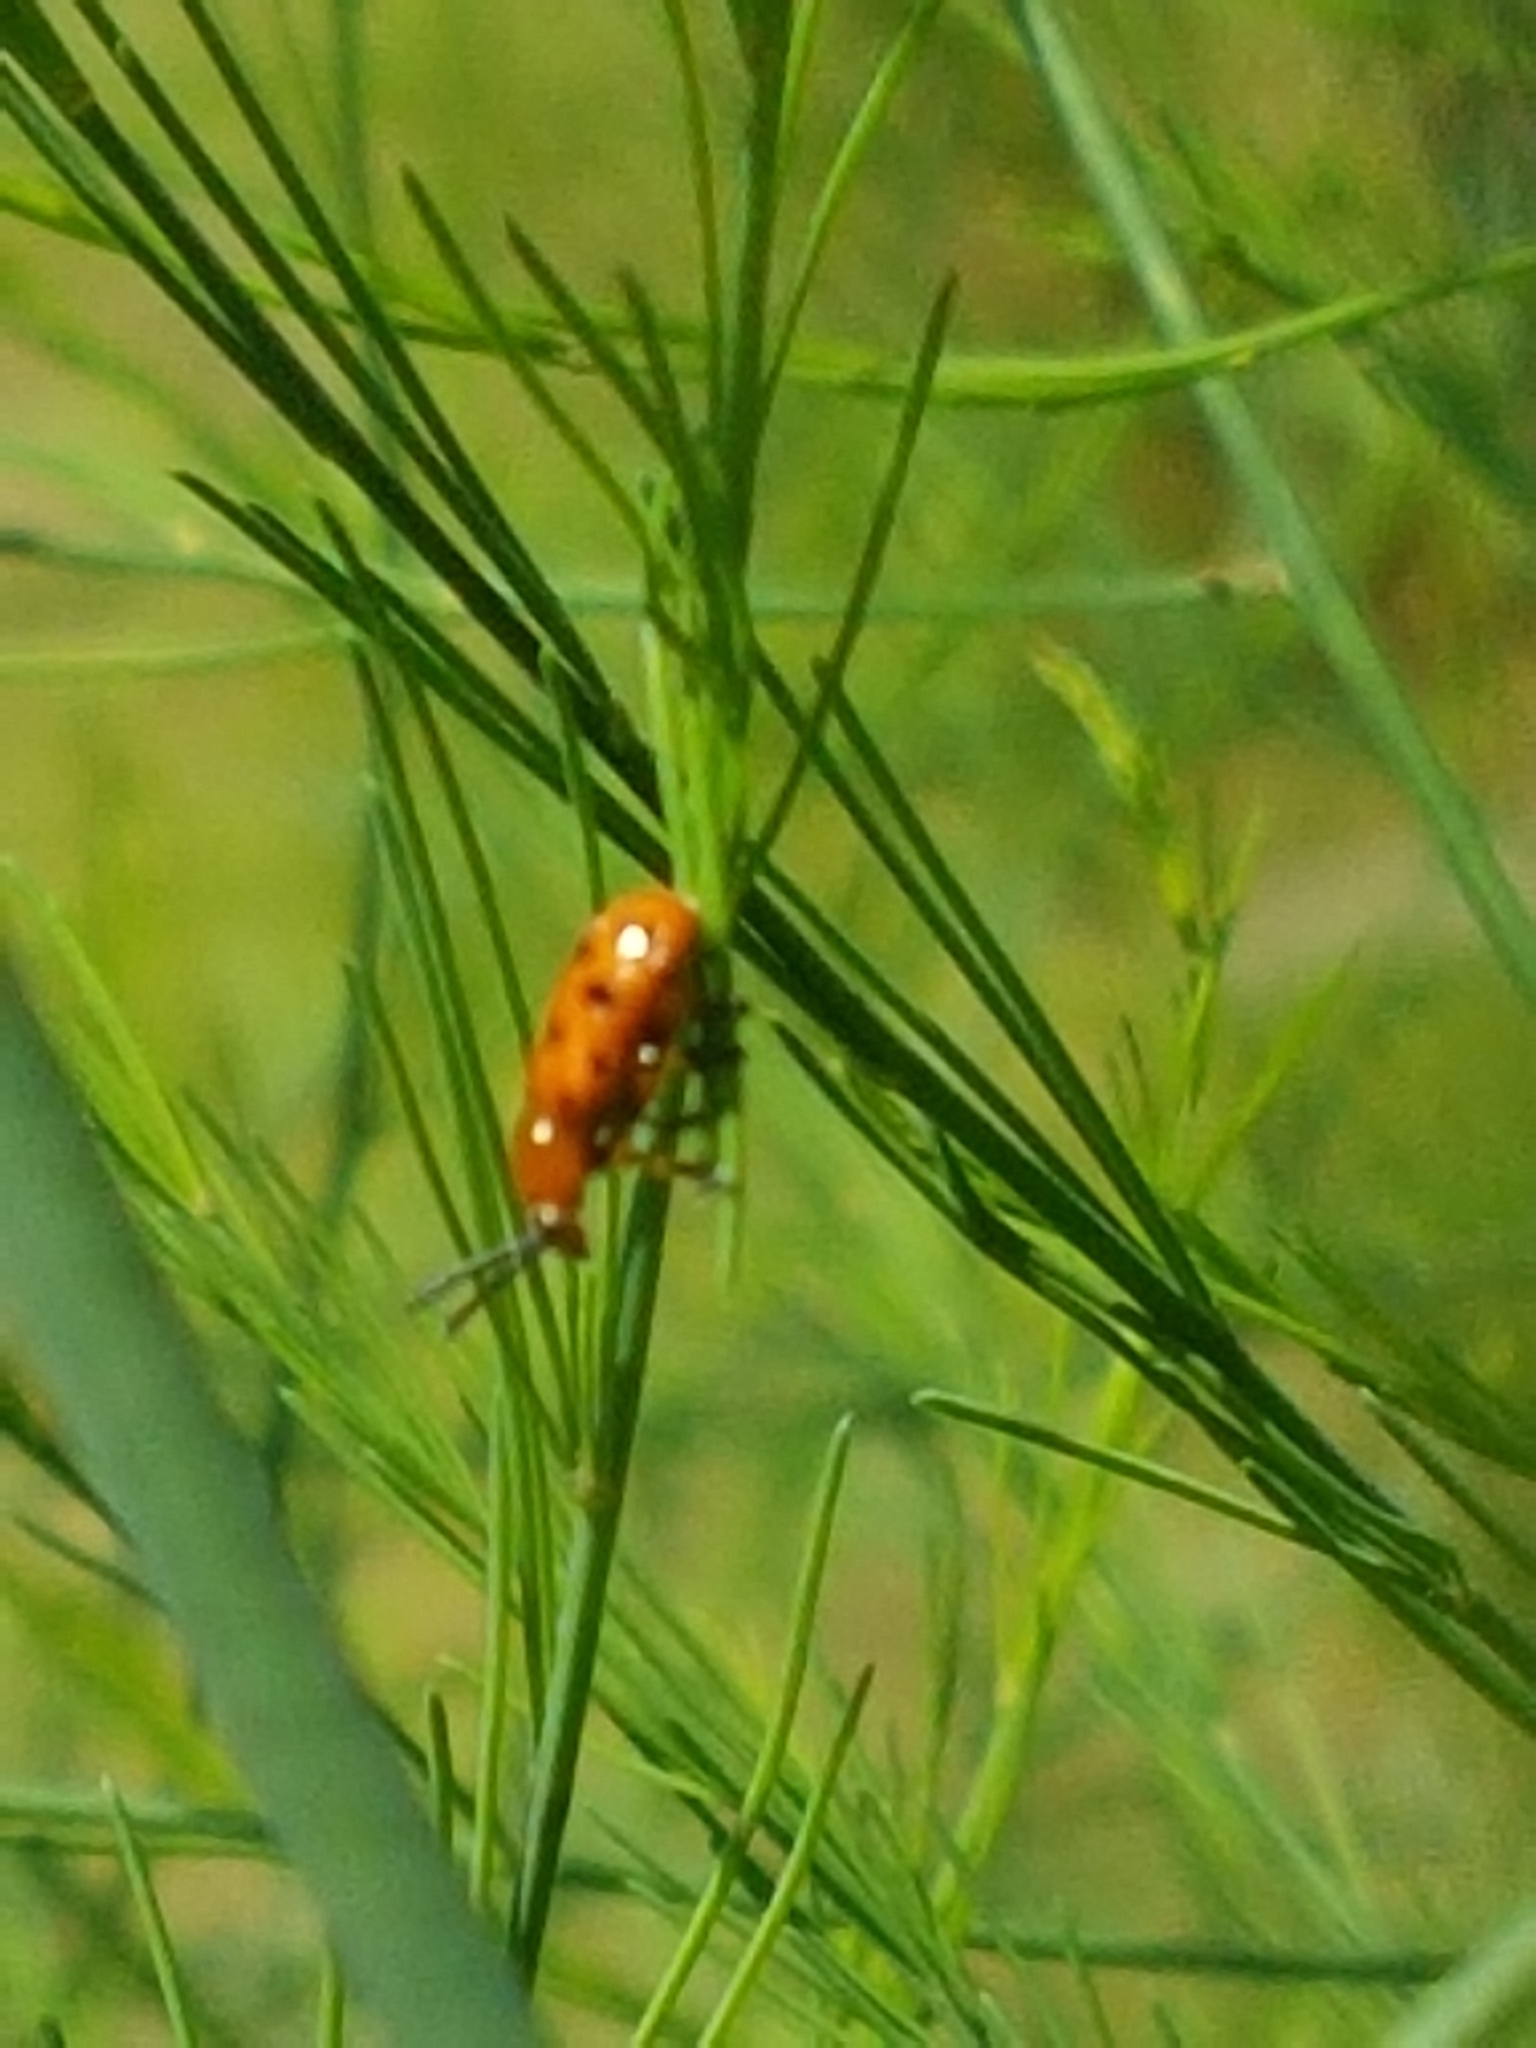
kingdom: Animalia
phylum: Arthropoda
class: Insecta
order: Coleoptera
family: Chrysomelidae
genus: Crioceris
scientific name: Crioceris duodecimpunctata
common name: Twelve-spotted asparagus beetle
